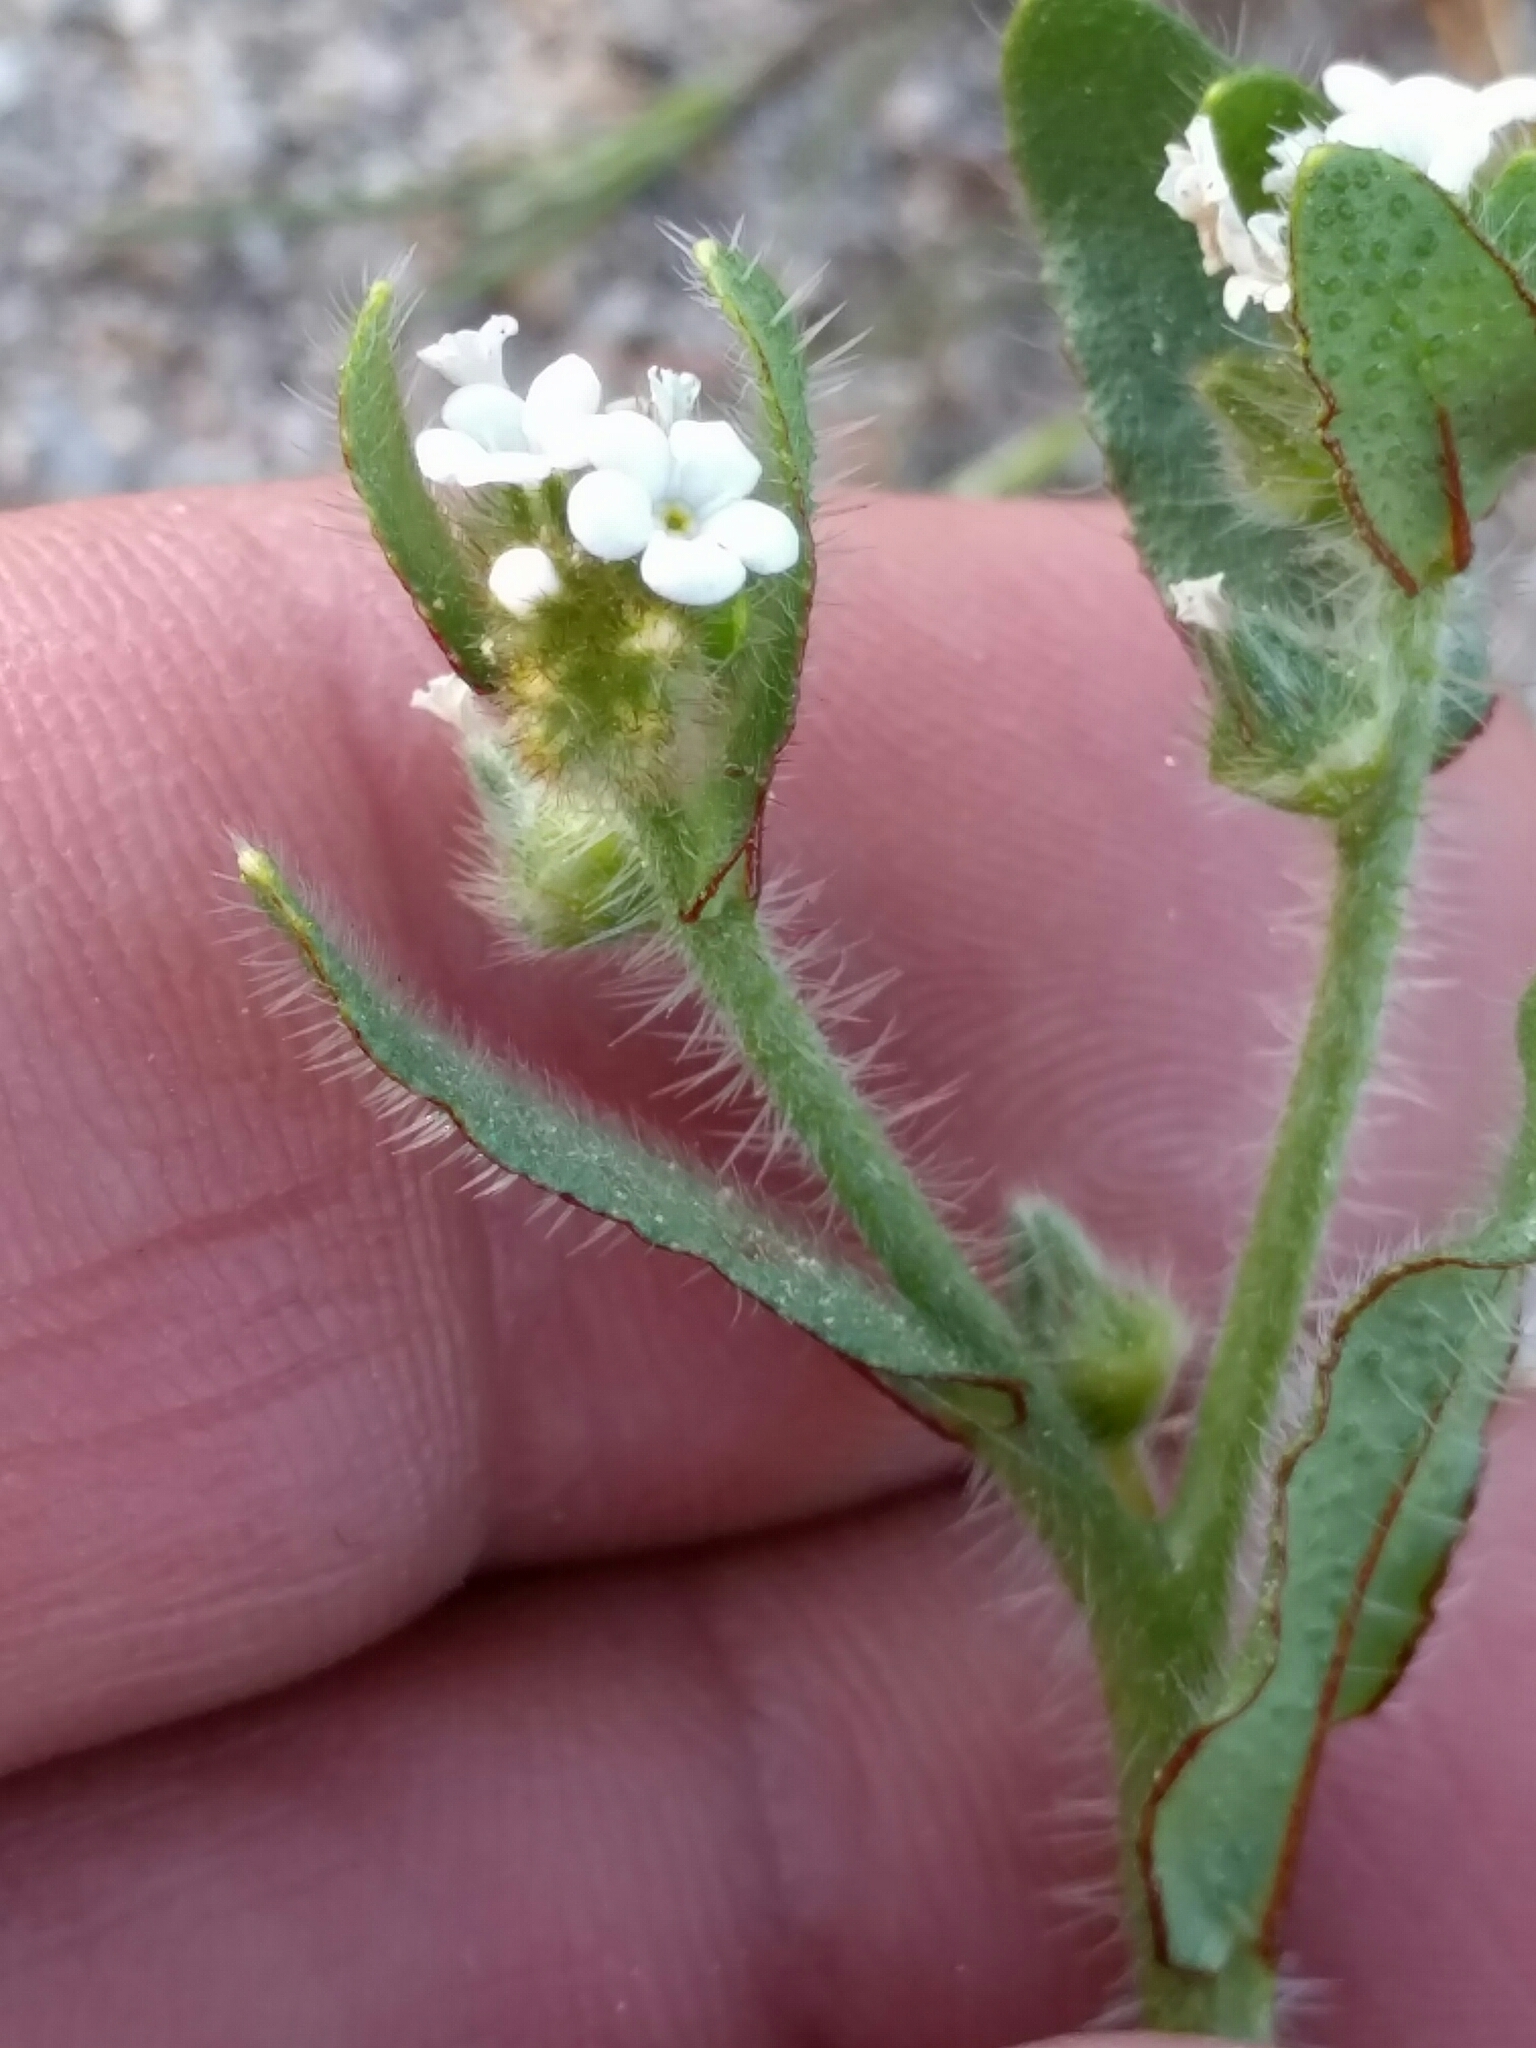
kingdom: Plantae
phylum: Tracheophyta
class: Magnoliopsida
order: Boraginales
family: Boraginaceae
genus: Plagiobothrys
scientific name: Plagiobothrys arizonicus
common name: Arizona popcorn-flower
